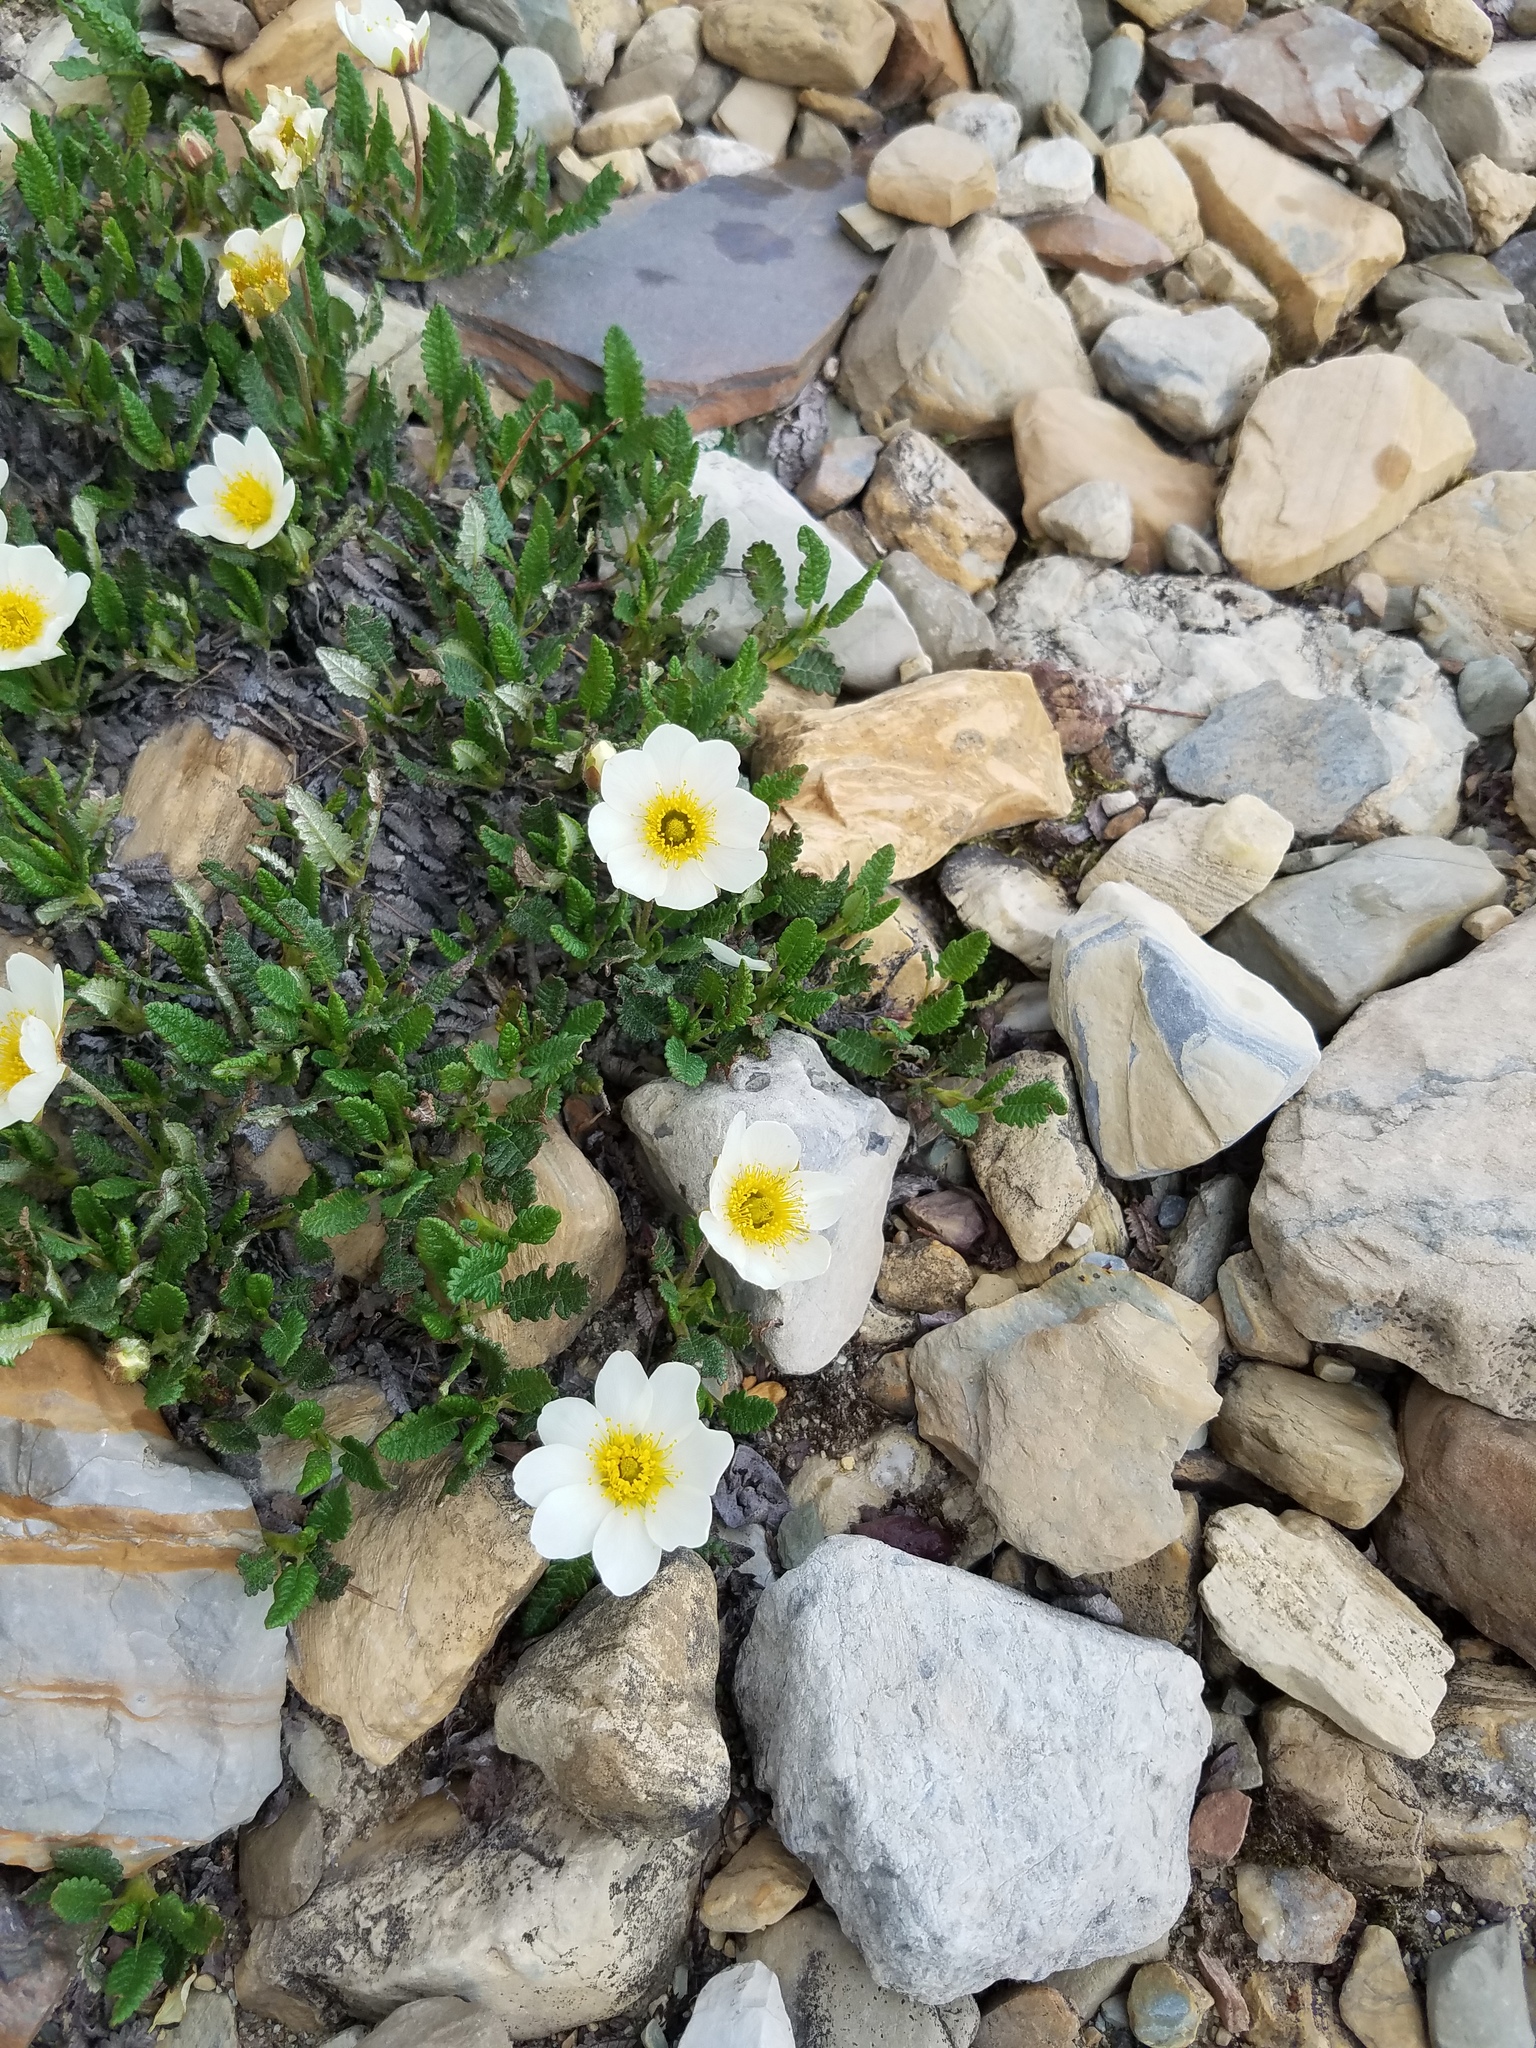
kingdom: Plantae
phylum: Tracheophyta
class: Magnoliopsida
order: Rosales
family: Rosaceae
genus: Dryas
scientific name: Dryas octopetala
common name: Eight-petal mountain-avens
